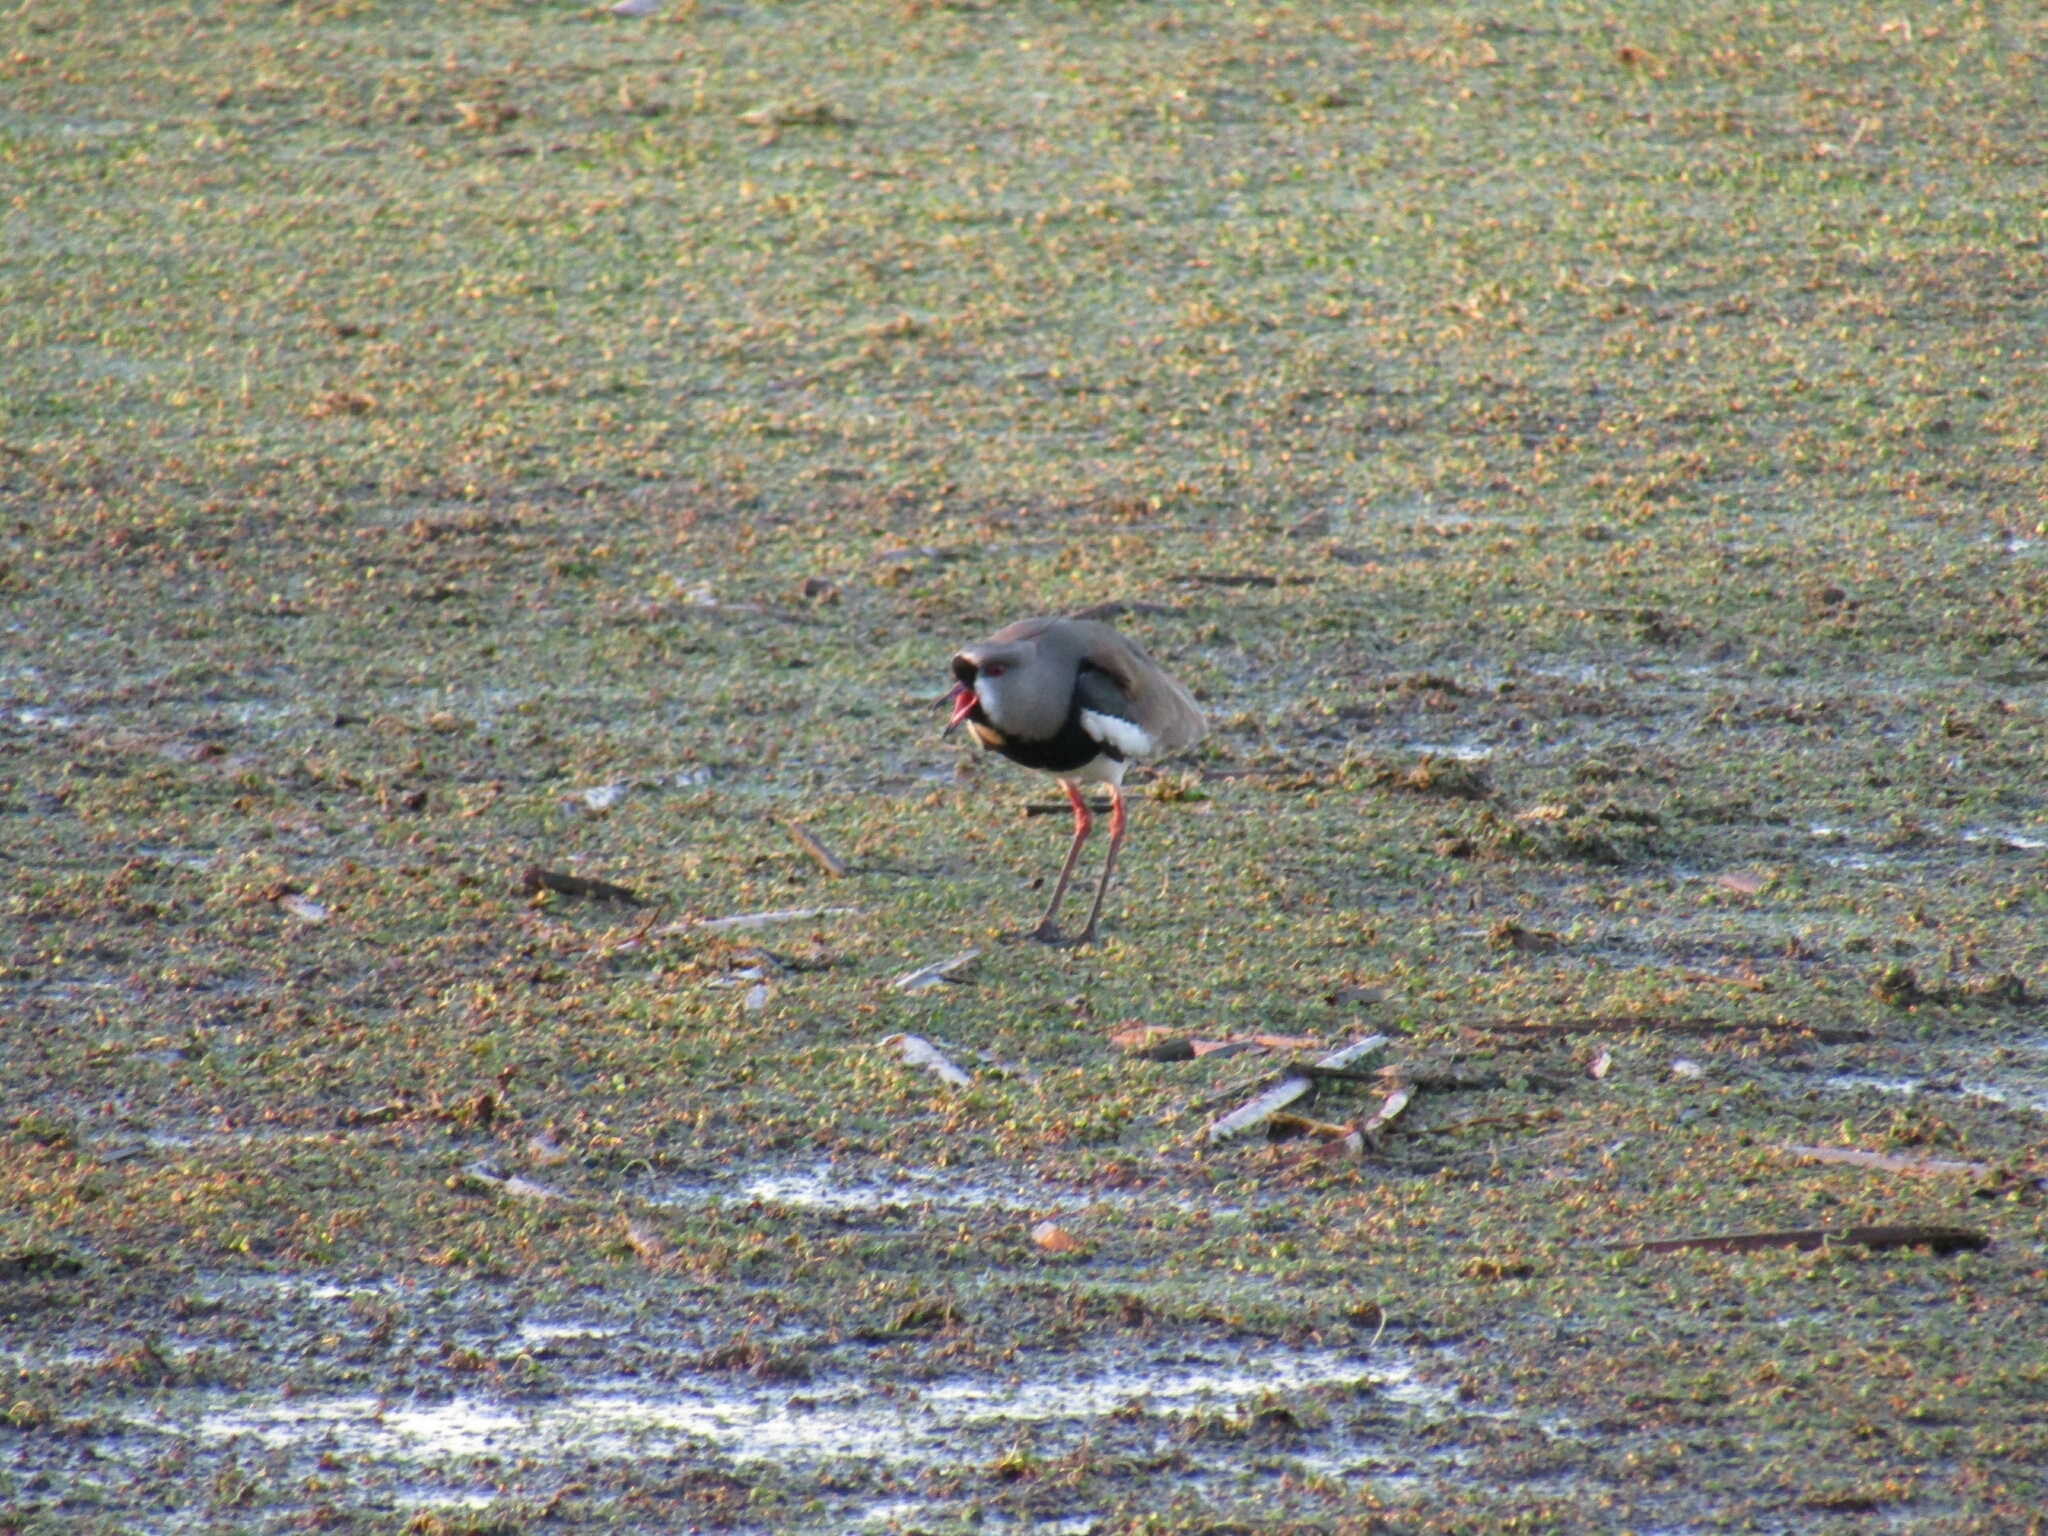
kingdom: Animalia
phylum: Chordata
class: Aves
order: Charadriiformes
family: Charadriidae
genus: Vanellus
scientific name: Vanellus chilensis
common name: Southern lapwing
